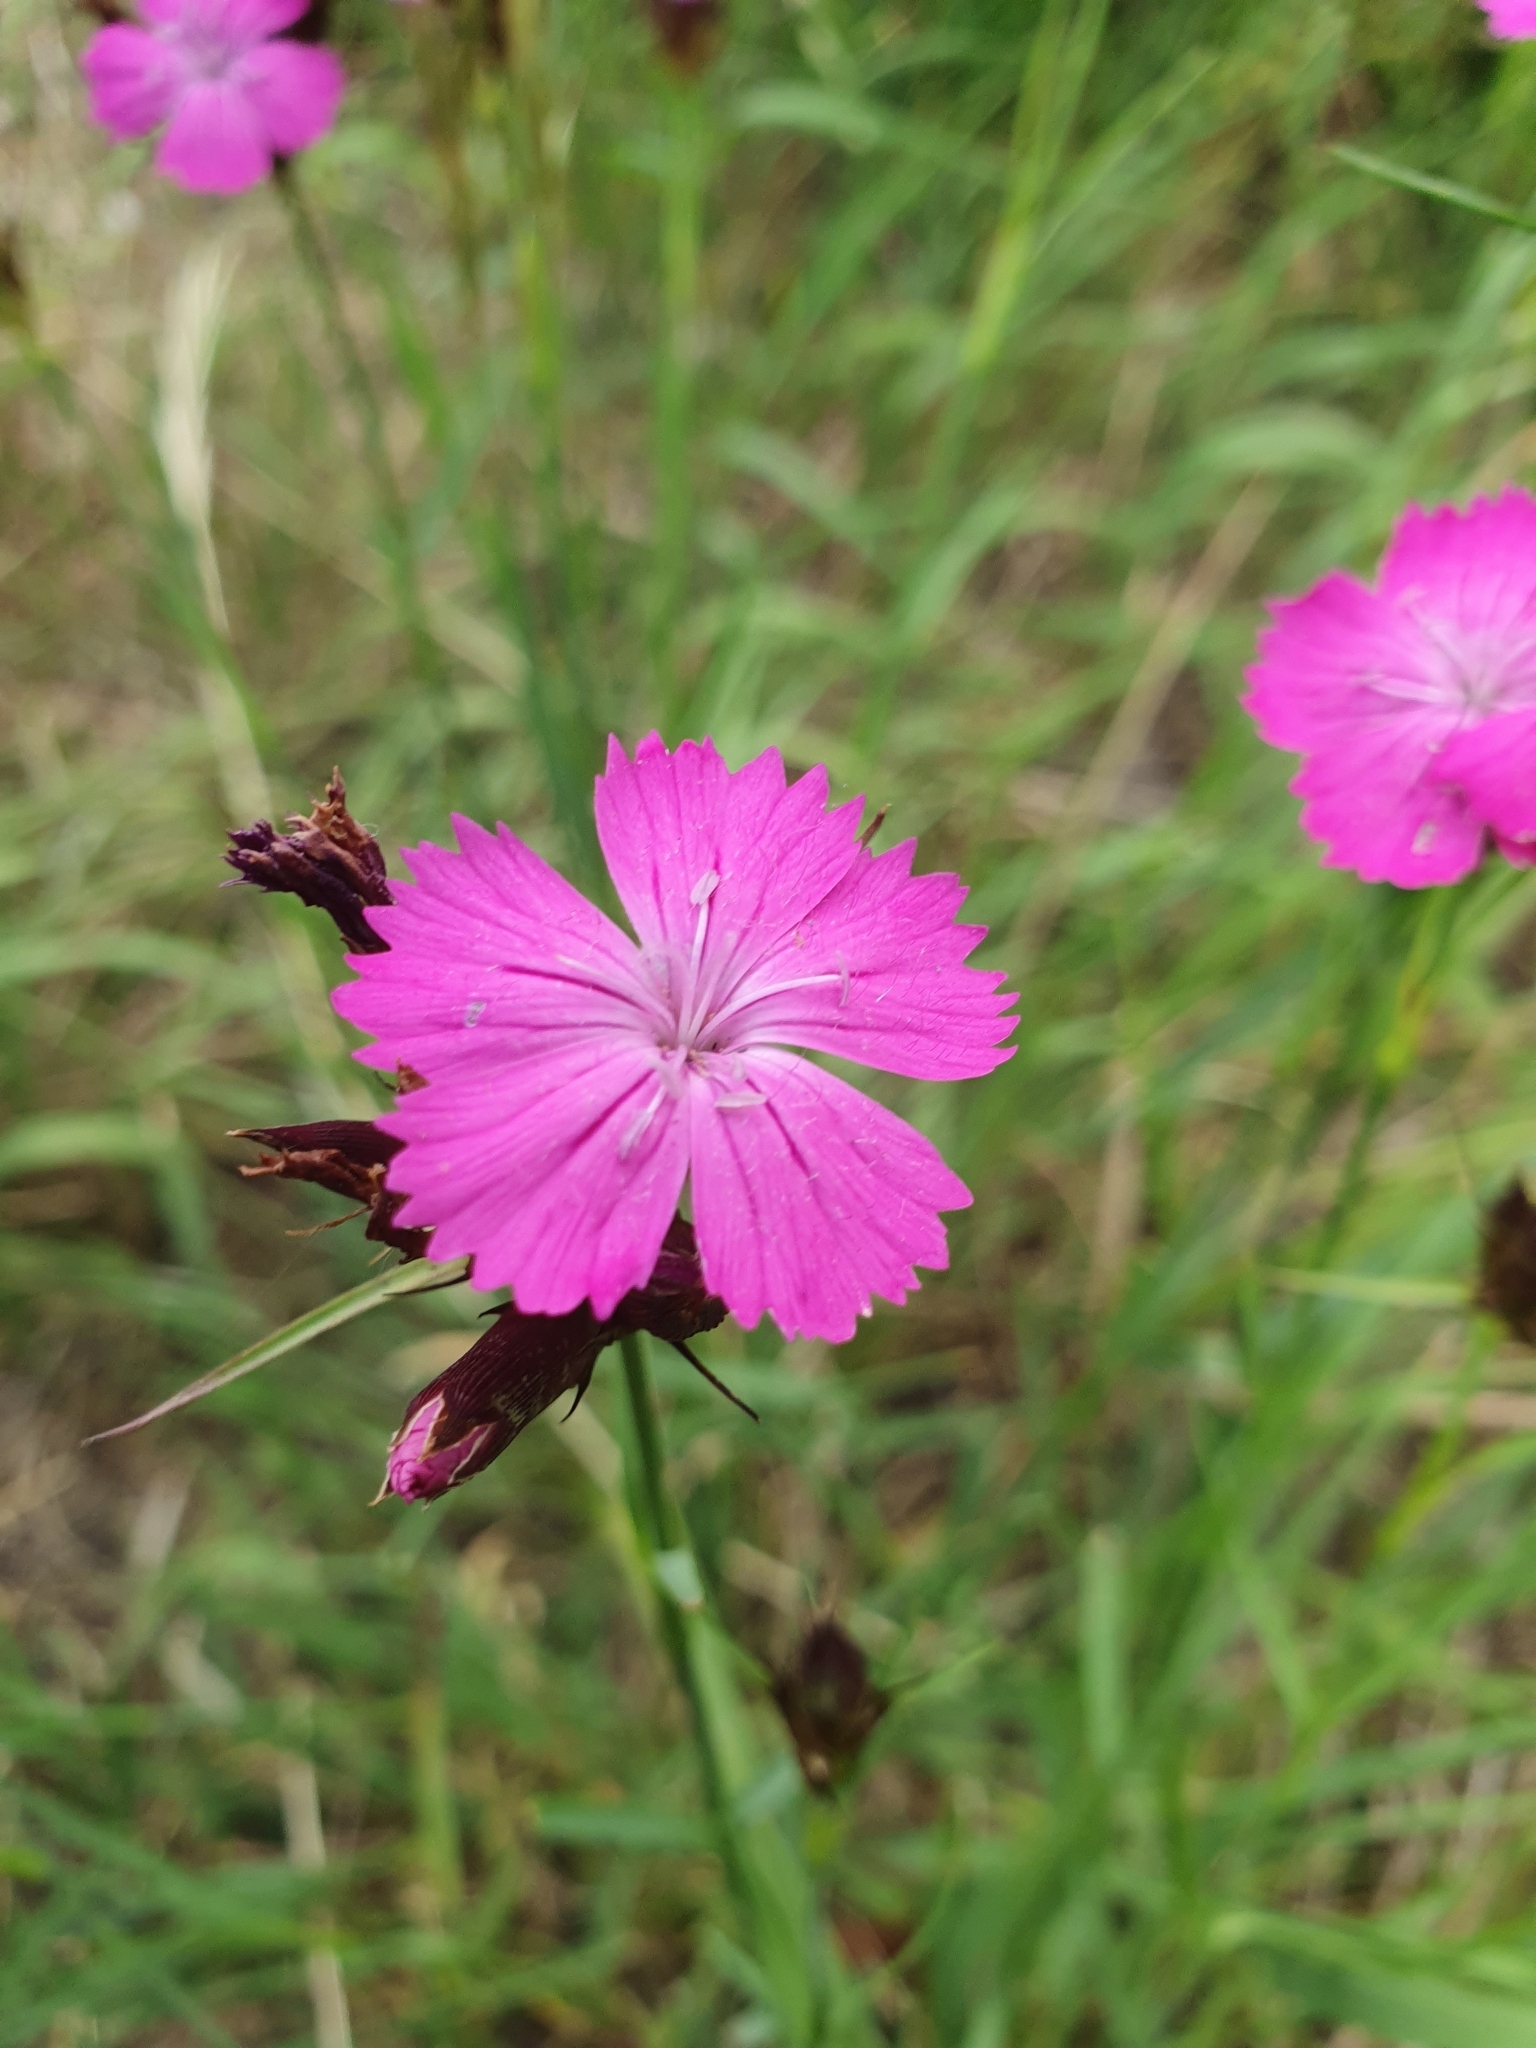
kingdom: Plantae
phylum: Tracheophyta
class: Magnoliopsida
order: Caryophyllales
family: Caryophyllaceae
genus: Dianthus
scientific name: Dianthus carthusianorum
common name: Carthusian pink
